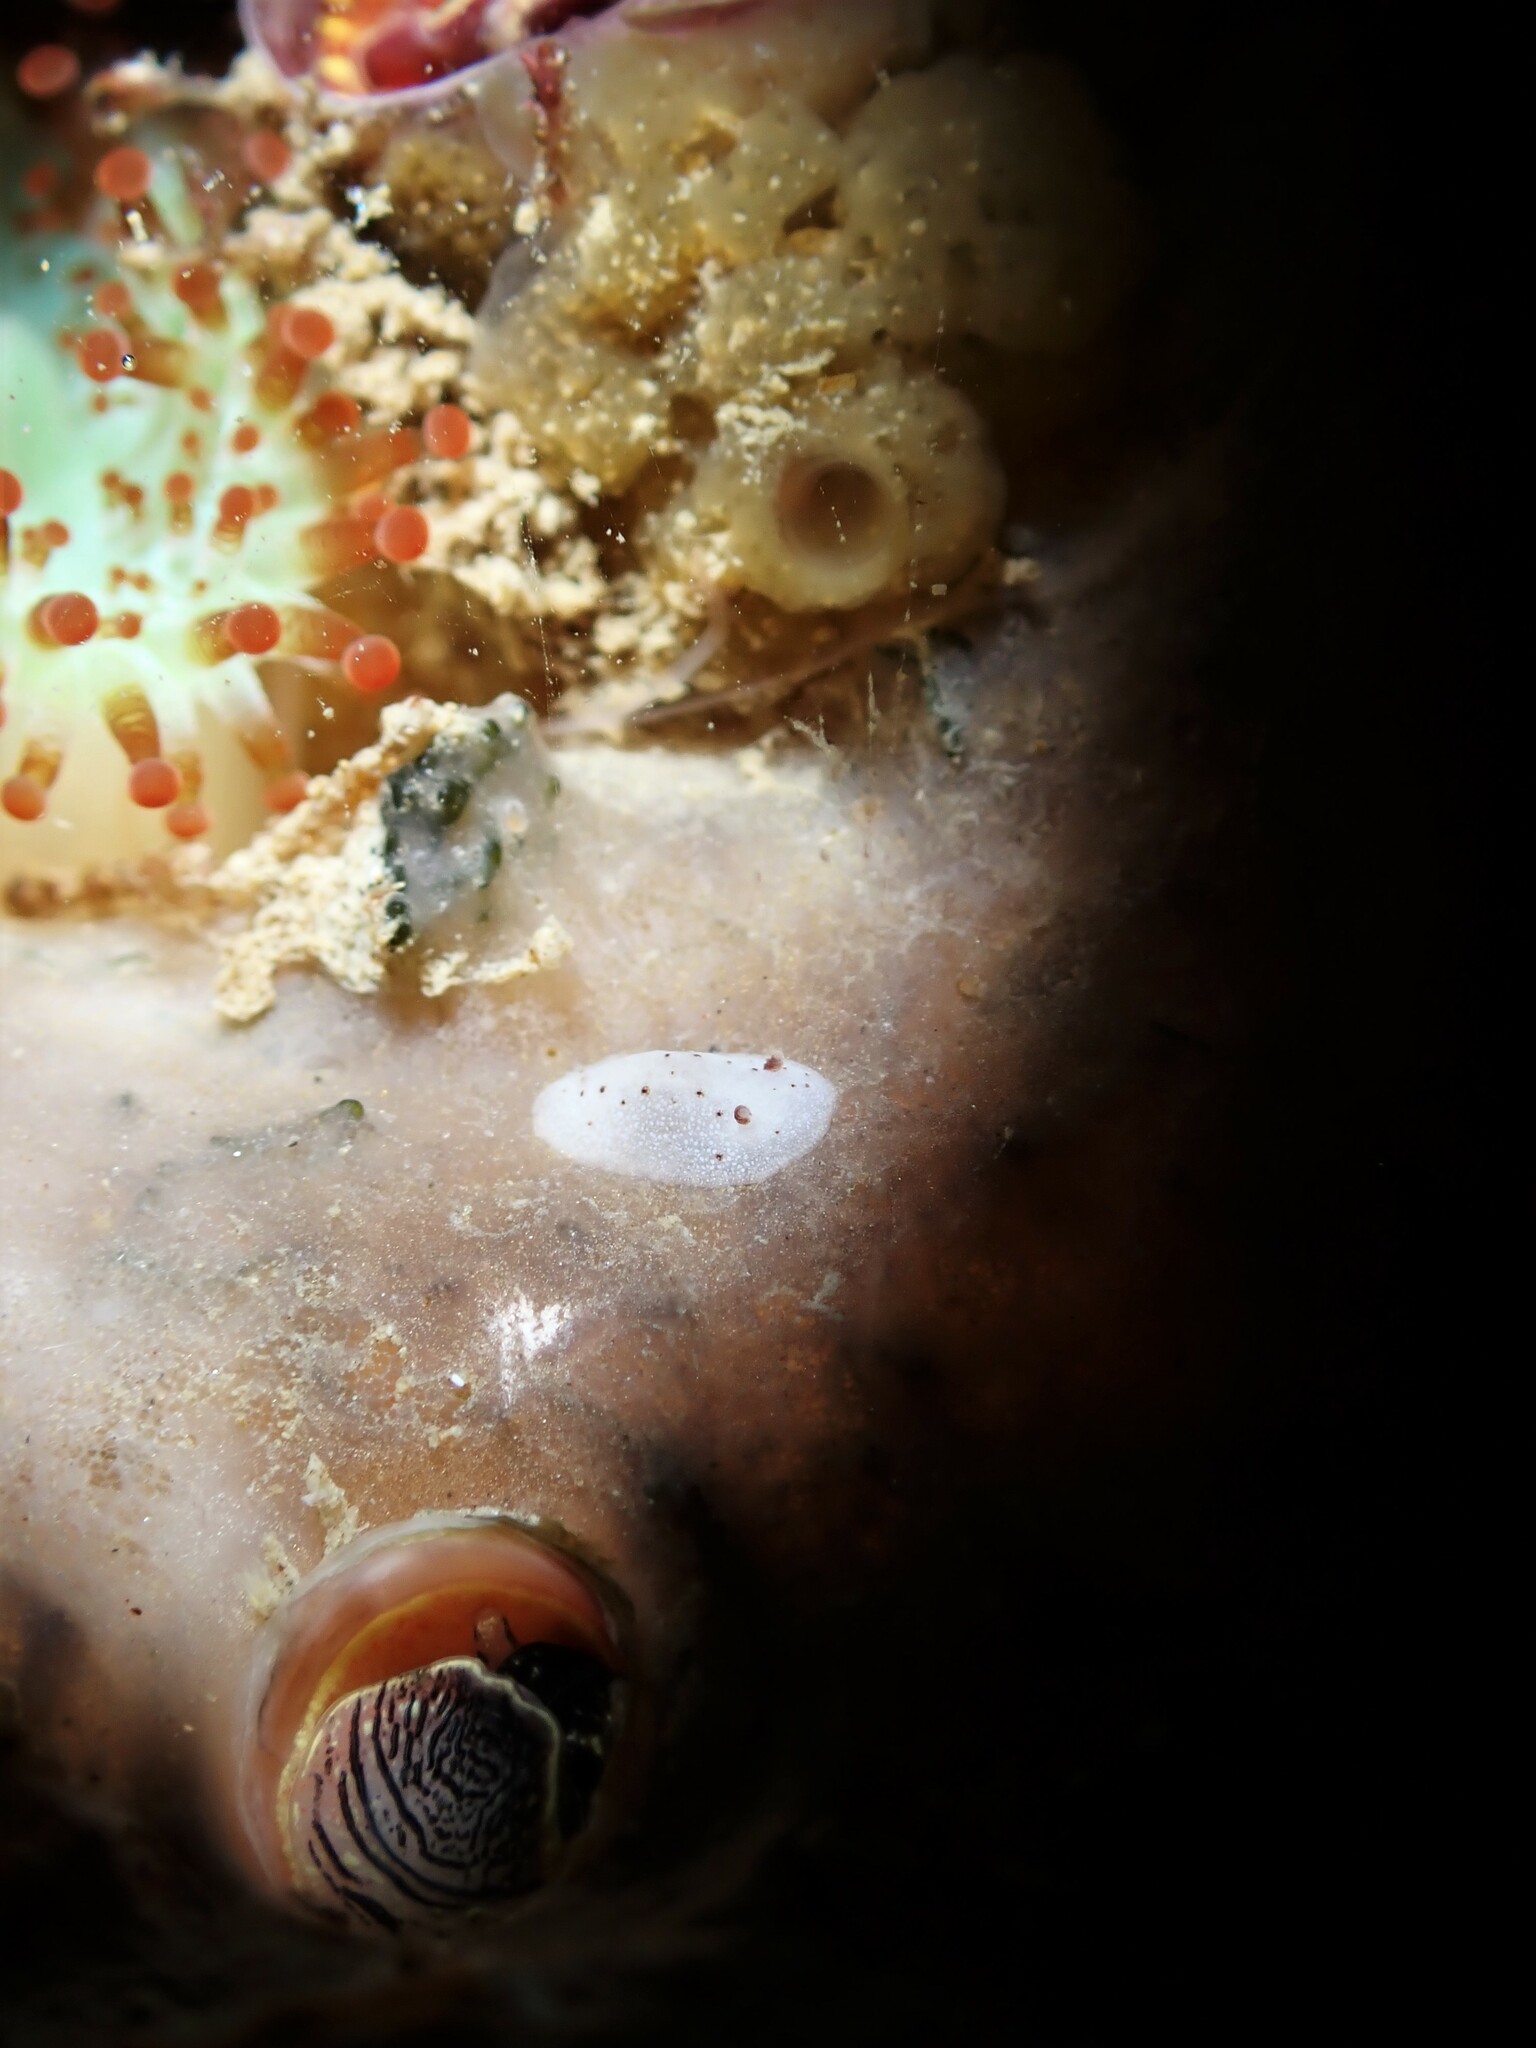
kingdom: Animalia
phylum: Mollusca
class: Gastropoda
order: Nudibranchia
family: Discodorididae
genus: Paradoris
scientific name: Paradoris dubia
